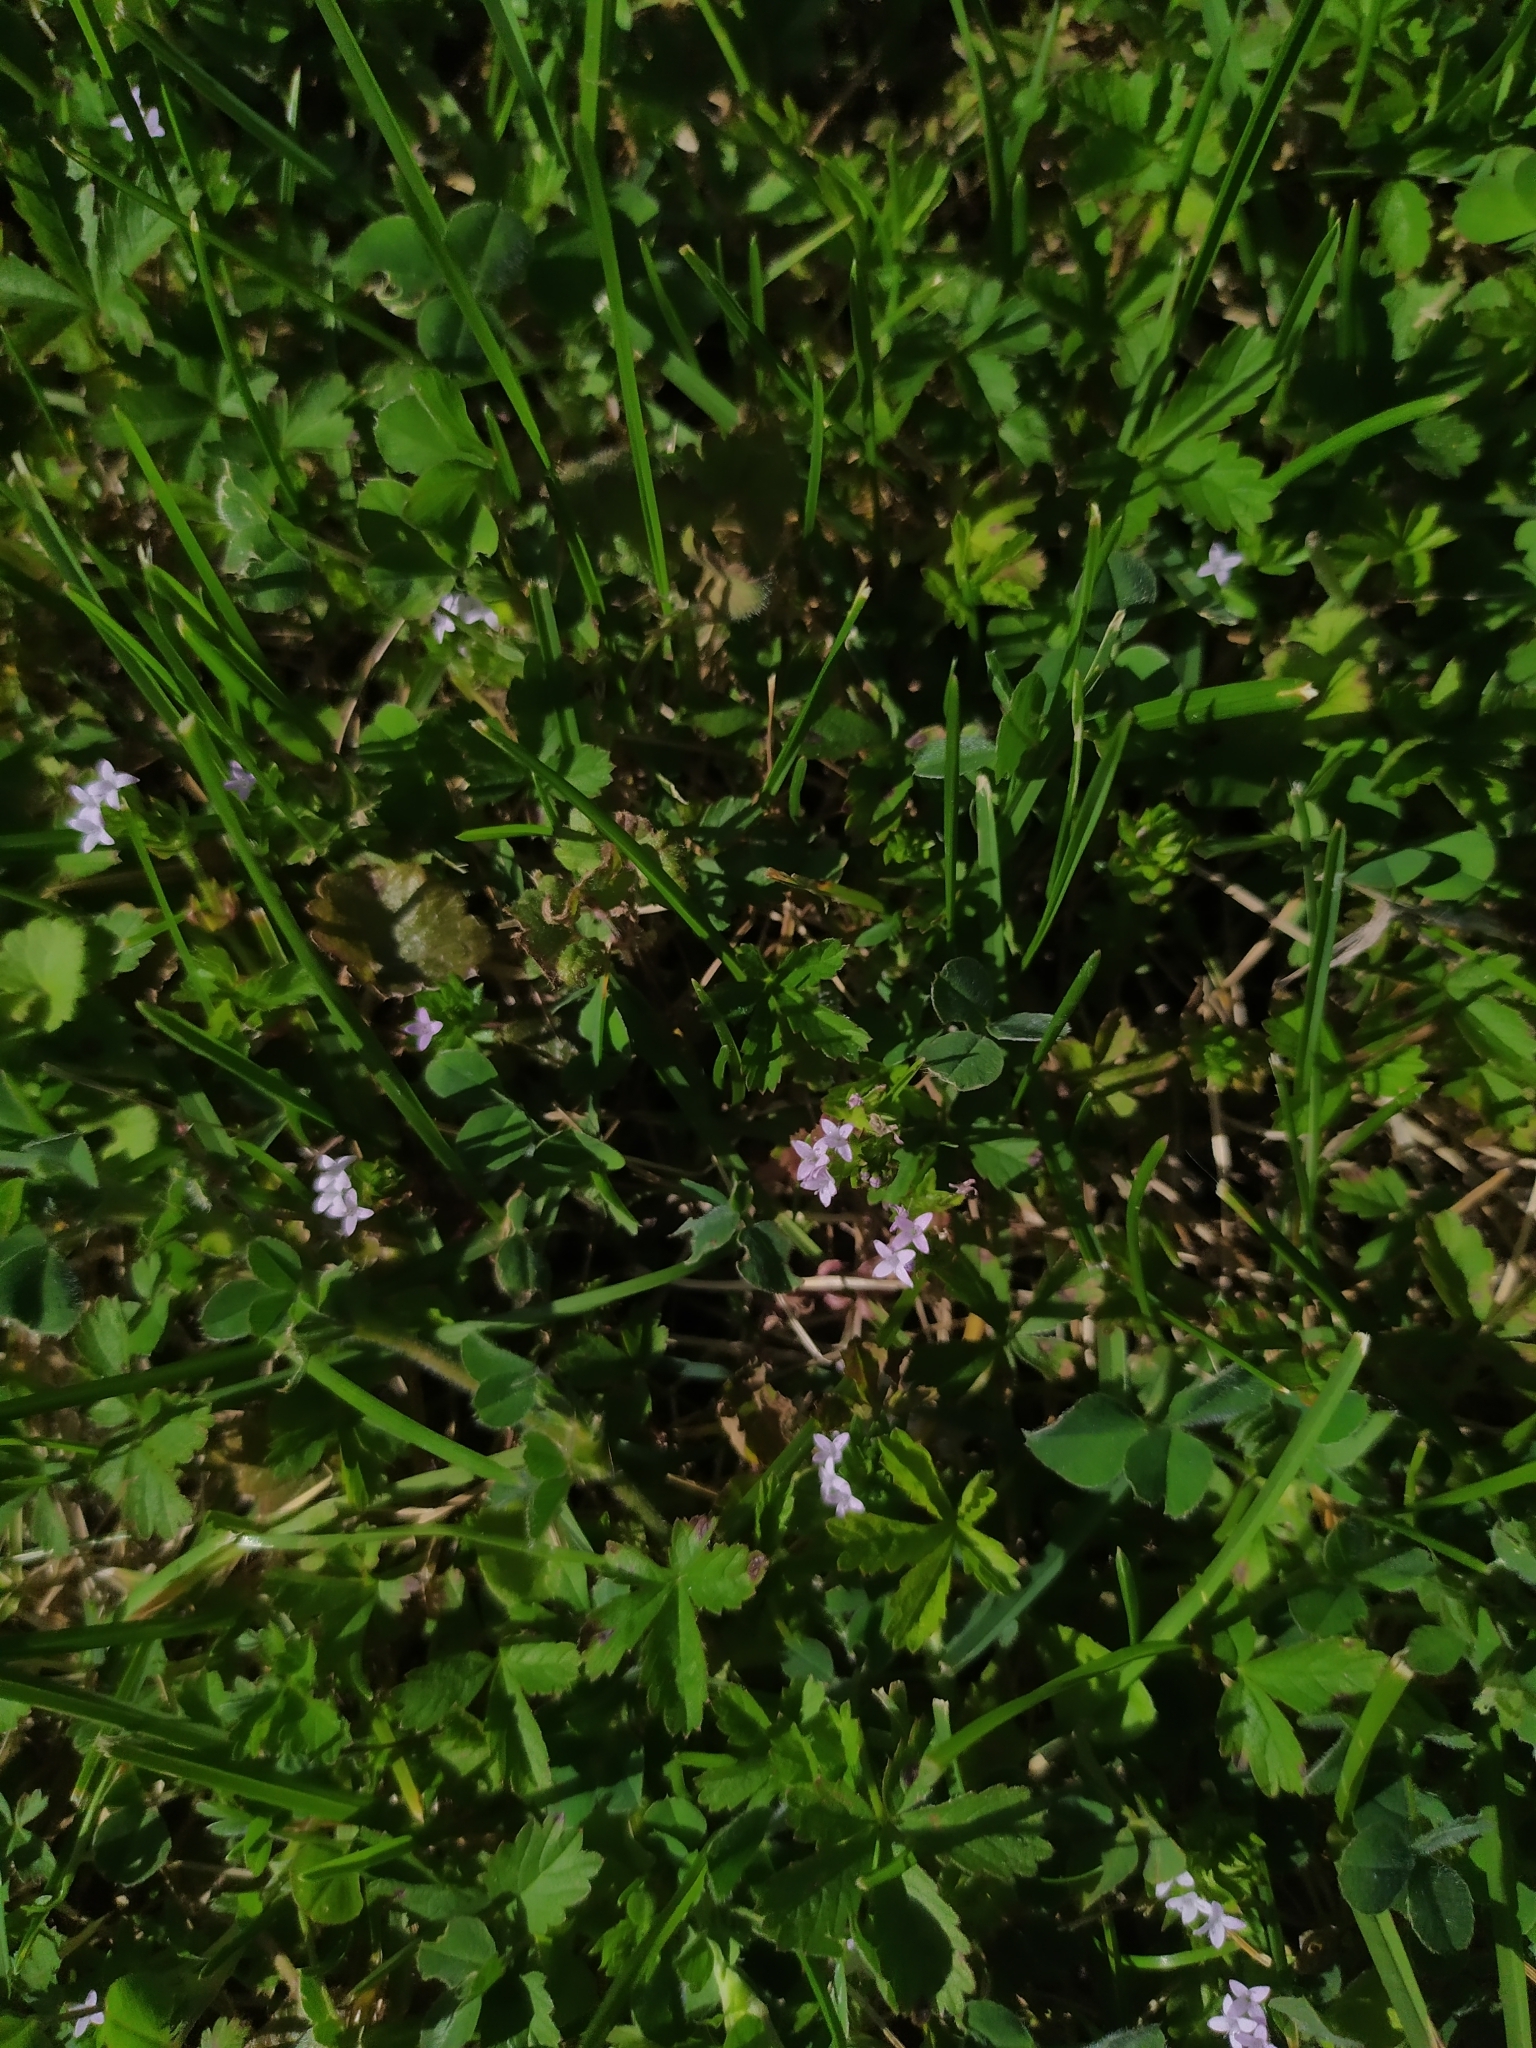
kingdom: Plantae
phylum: Tracheophyta
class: Magnoliopsida
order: Gentianales
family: Rubiaceae
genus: Sherardia
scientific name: Sherardia arvensis
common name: Field madder
